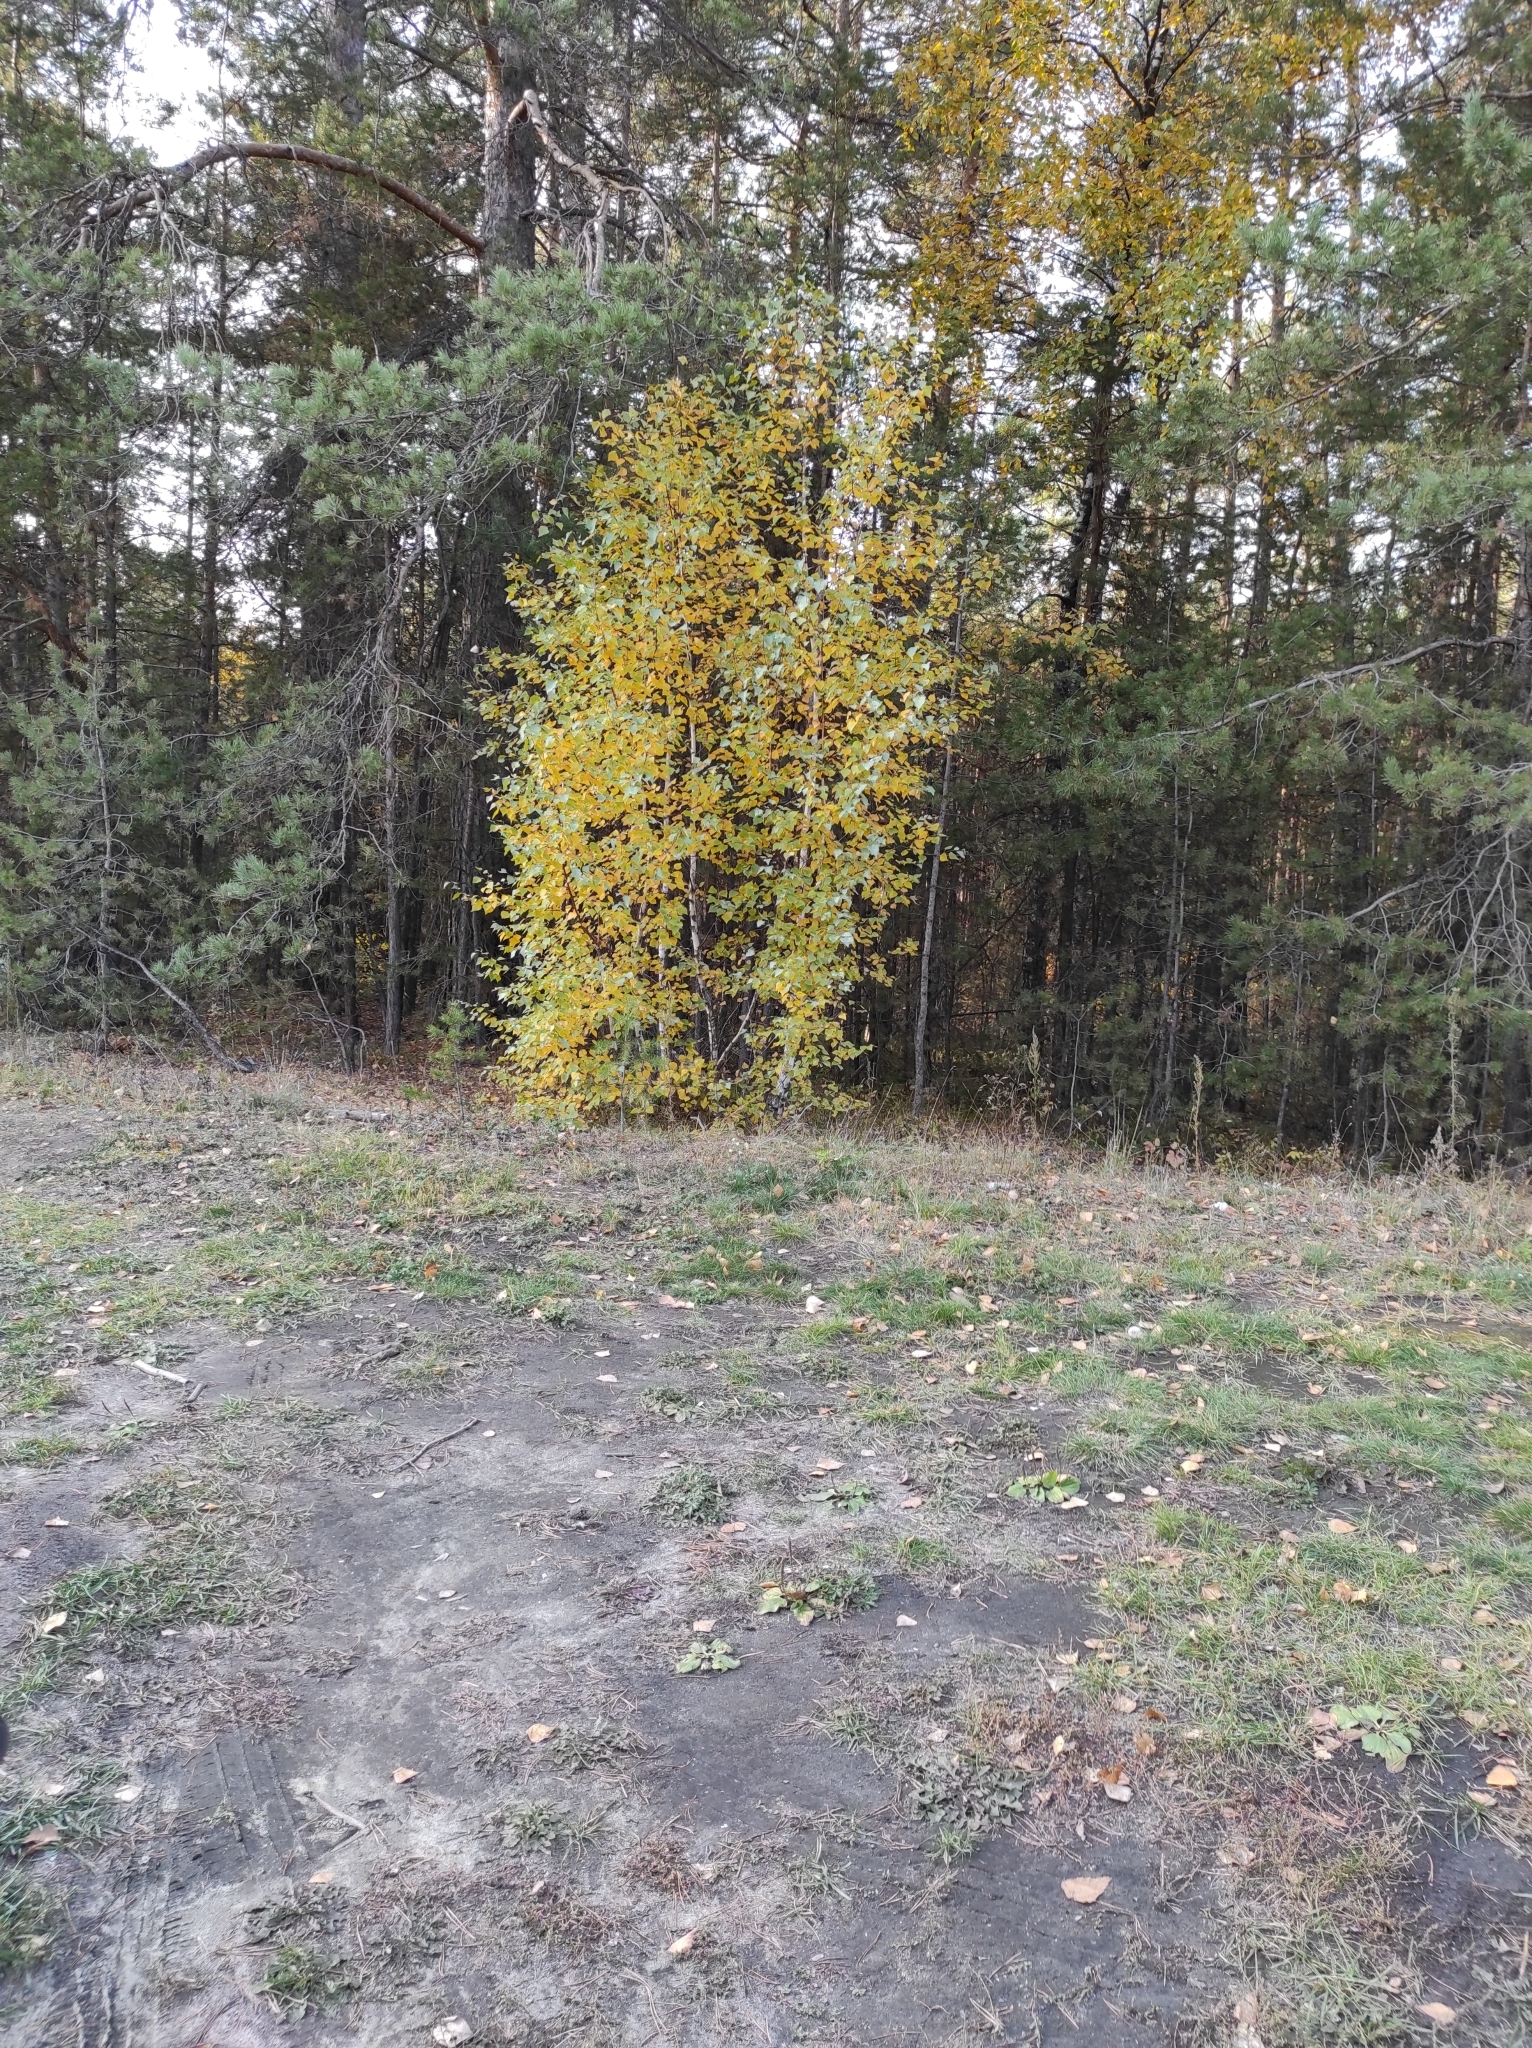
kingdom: Plantae
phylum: Tracheophyta
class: Magnoliopsida
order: Fagales
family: Betulaceae
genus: Betula
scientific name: Betula pendula
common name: Silver birch
